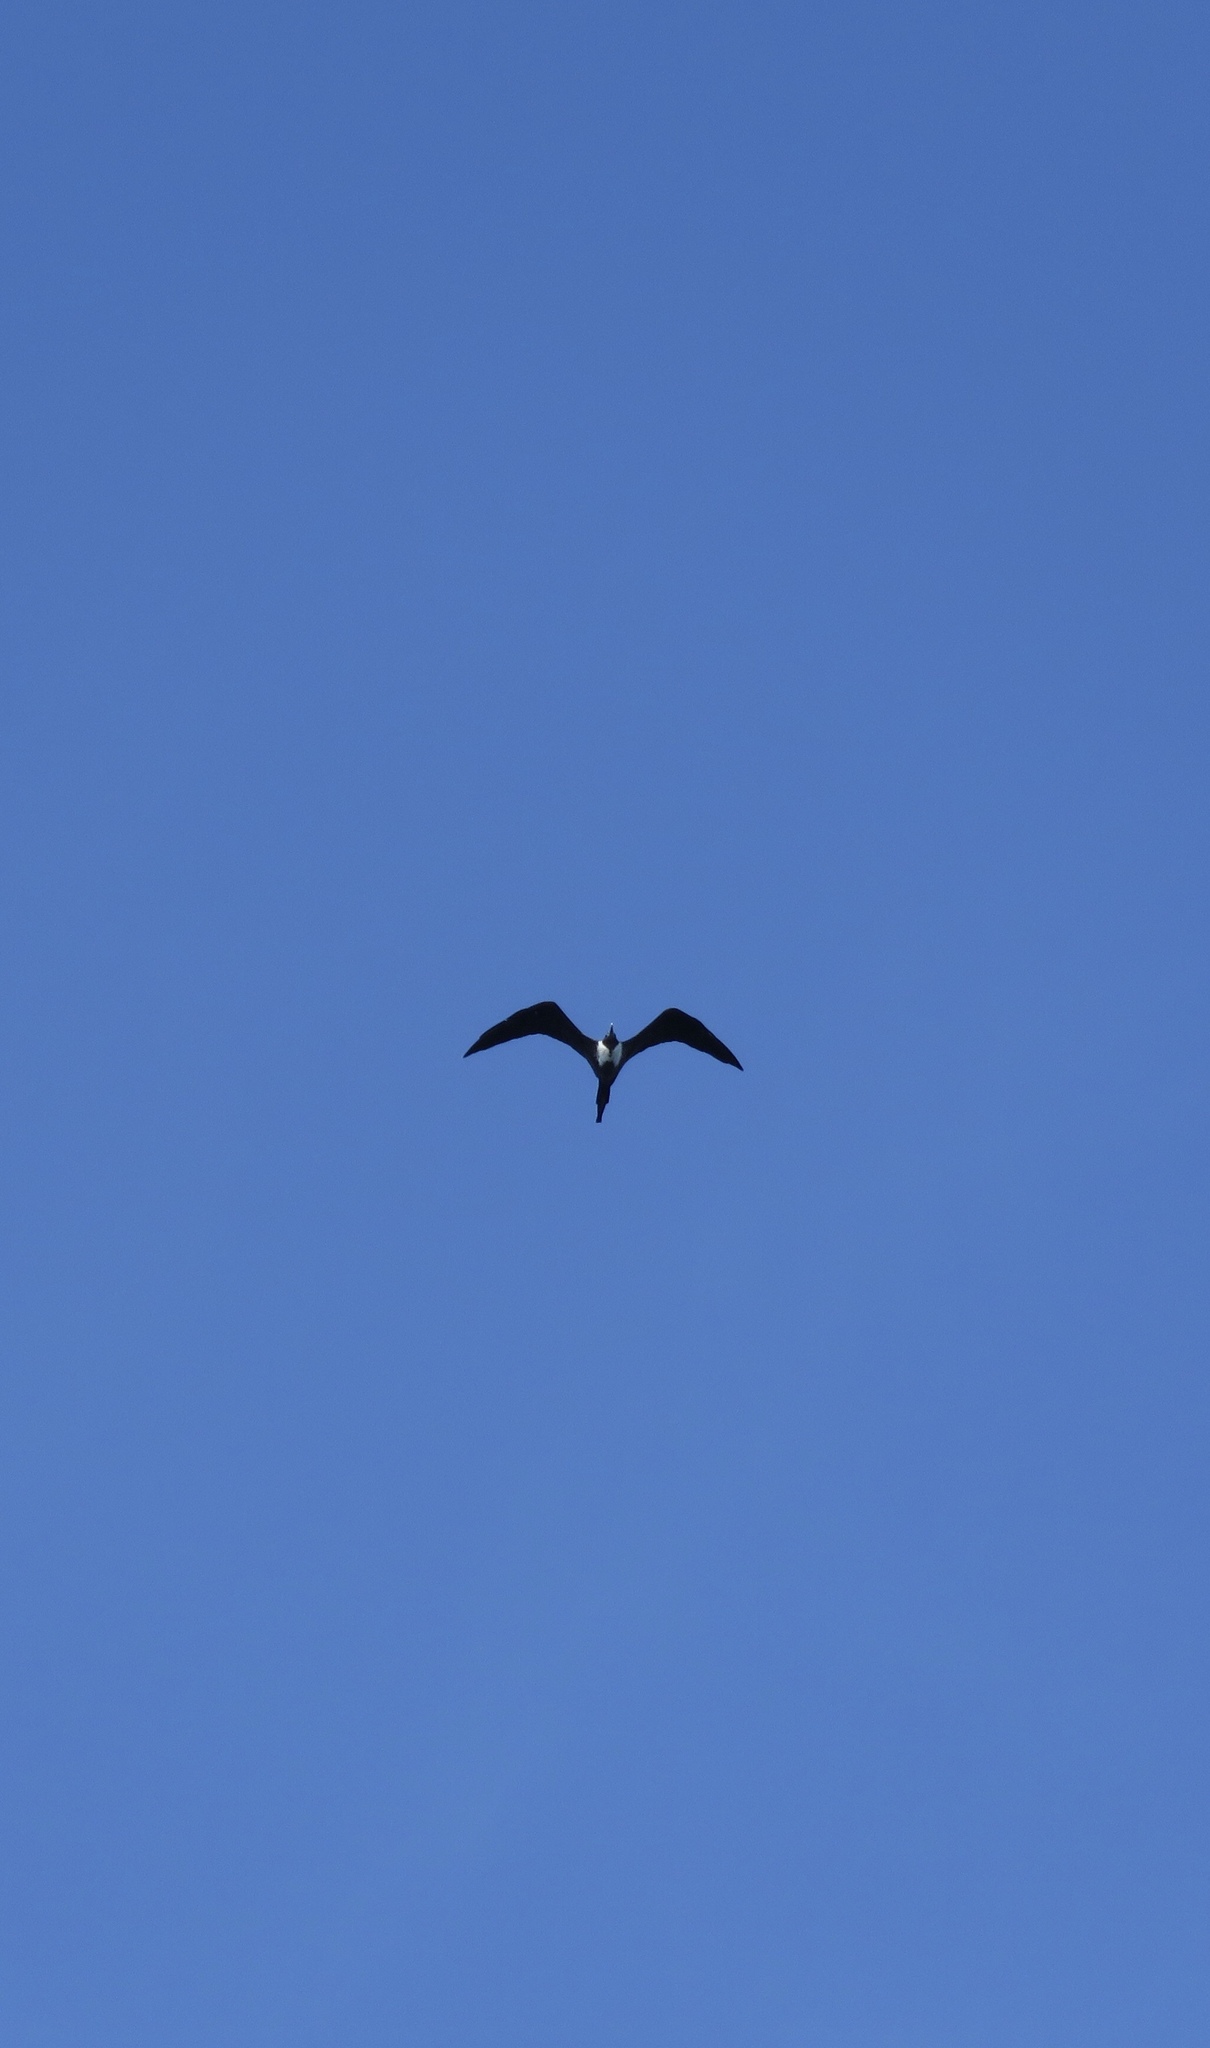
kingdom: Animalia
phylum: Chordata
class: Aves
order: Suliformes
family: Fregatidae
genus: Fregata
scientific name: Fregata magnificens
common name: Magnificent frigatebird
